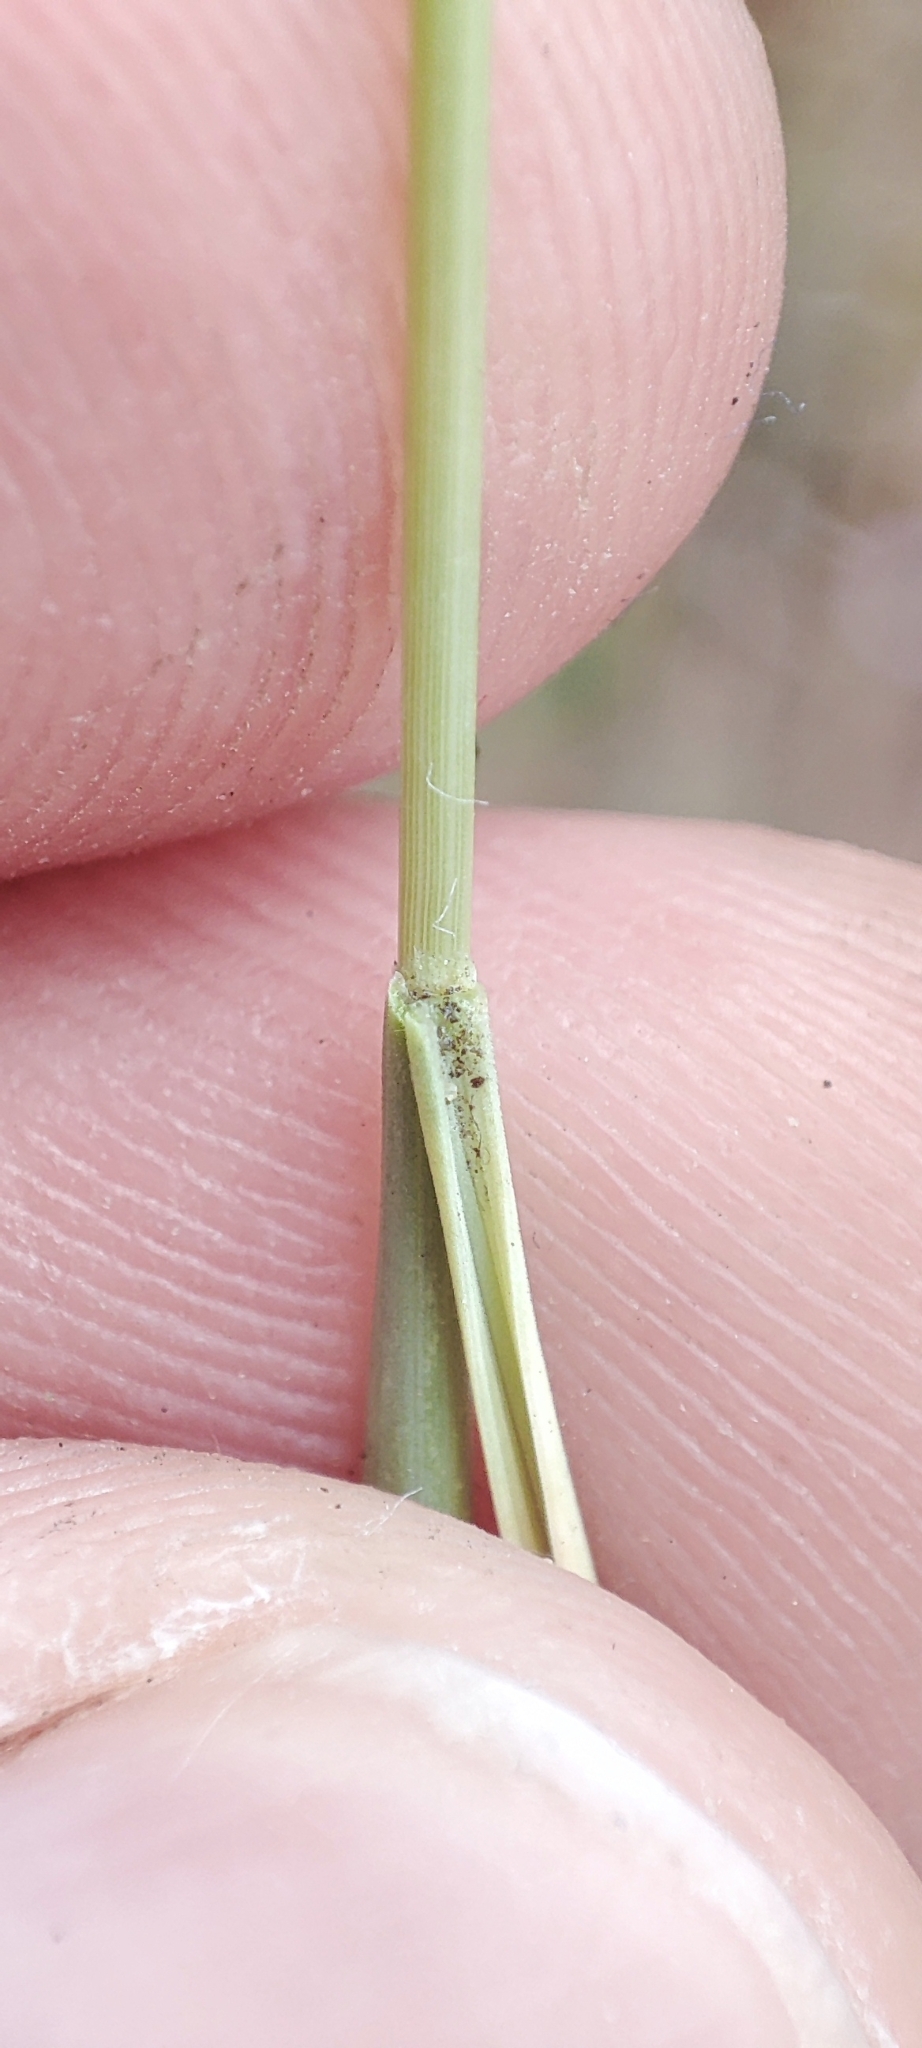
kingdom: Plantae
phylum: Tracheophyta
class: Liliopsida
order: Poales
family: Poaceae
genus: Koeleria
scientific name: Koeleria glauca
